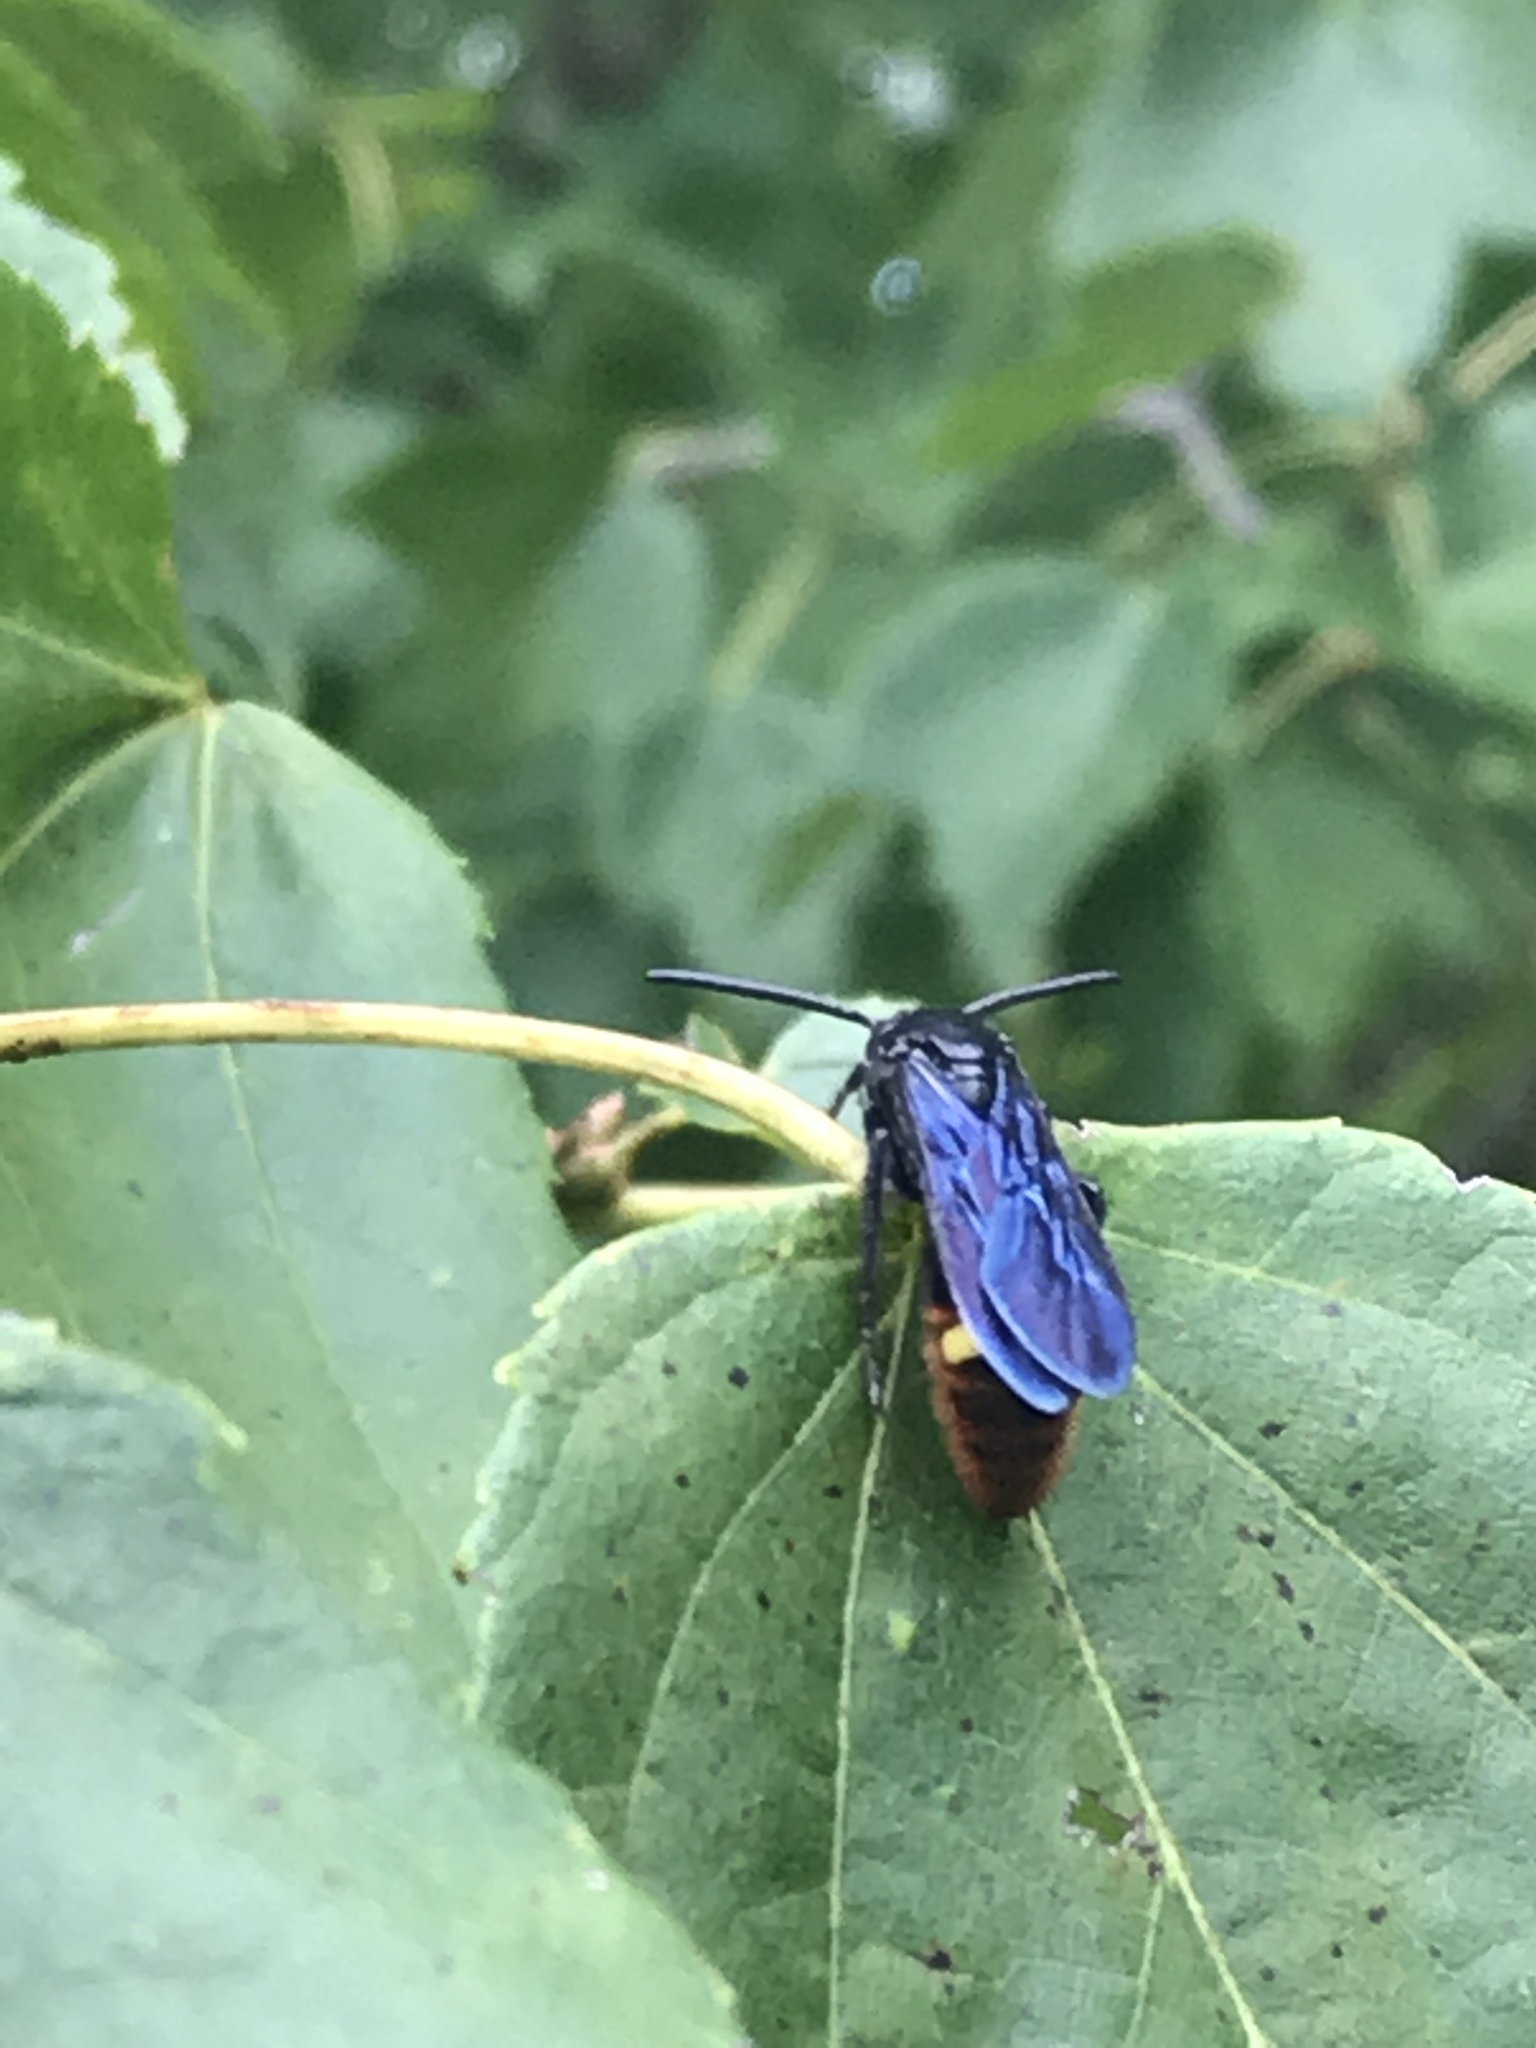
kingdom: Animalia
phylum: Arthropoda
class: Insecta
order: Hymenoptera
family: Scoliidae
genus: Scolia
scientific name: Scolia dubia
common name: Blue-winged scoliid wasp
